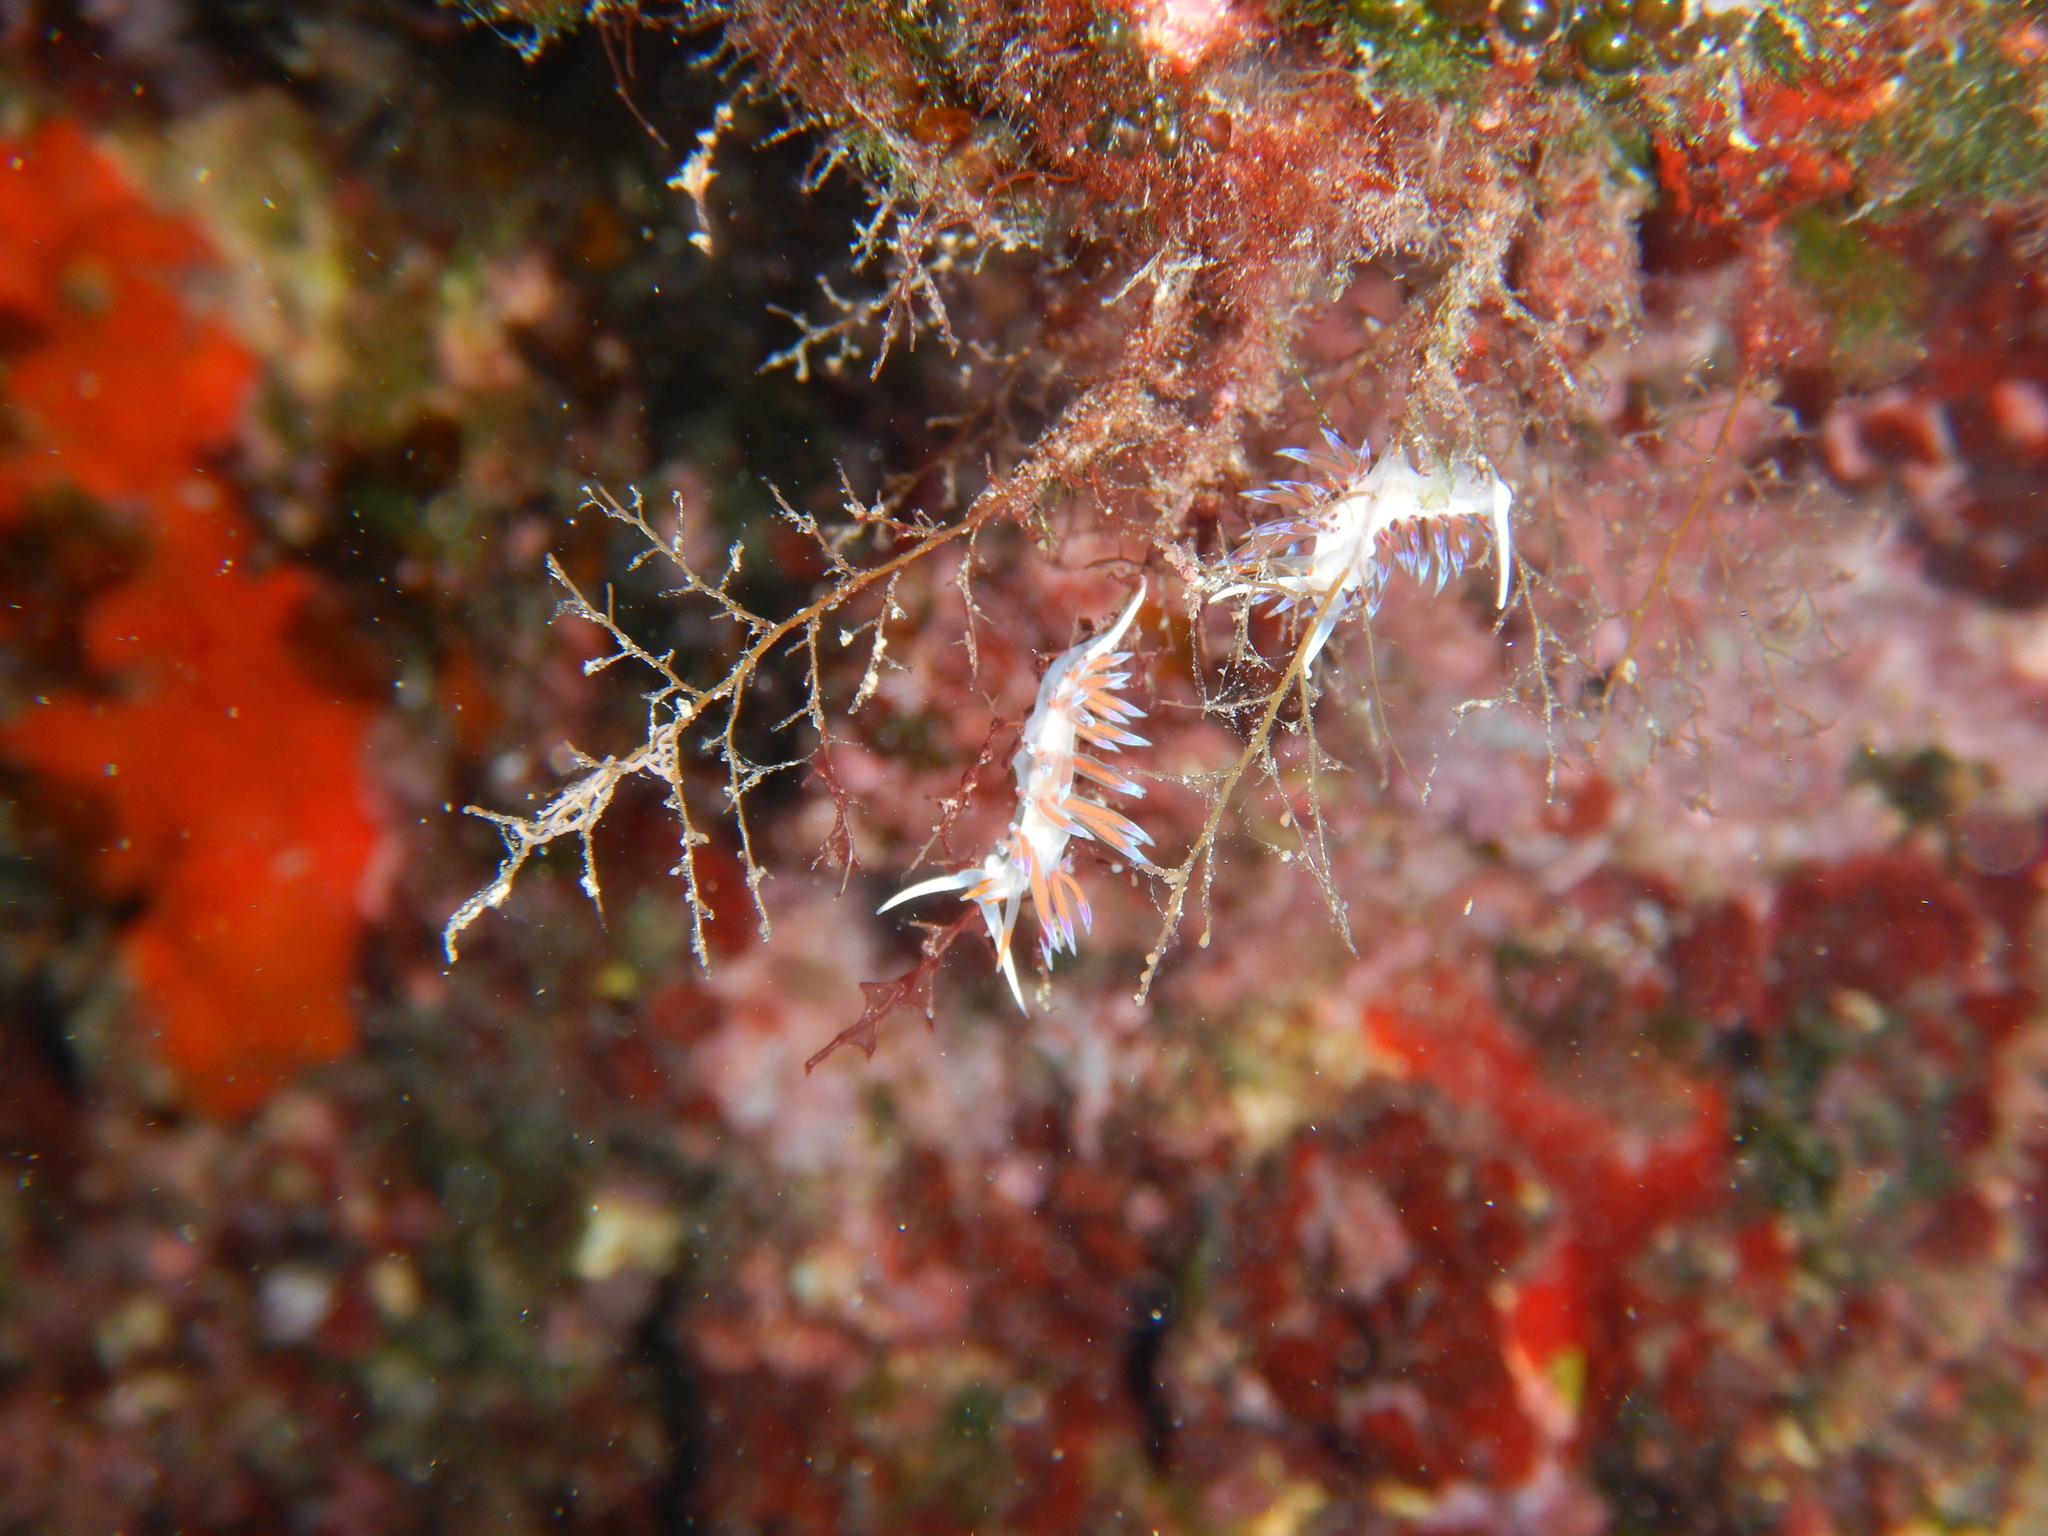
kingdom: Animalia
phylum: Mollusca
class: Gastropoda
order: Nudibranchia
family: Facelinidae
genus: Cratena
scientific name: Cratena peregrina
